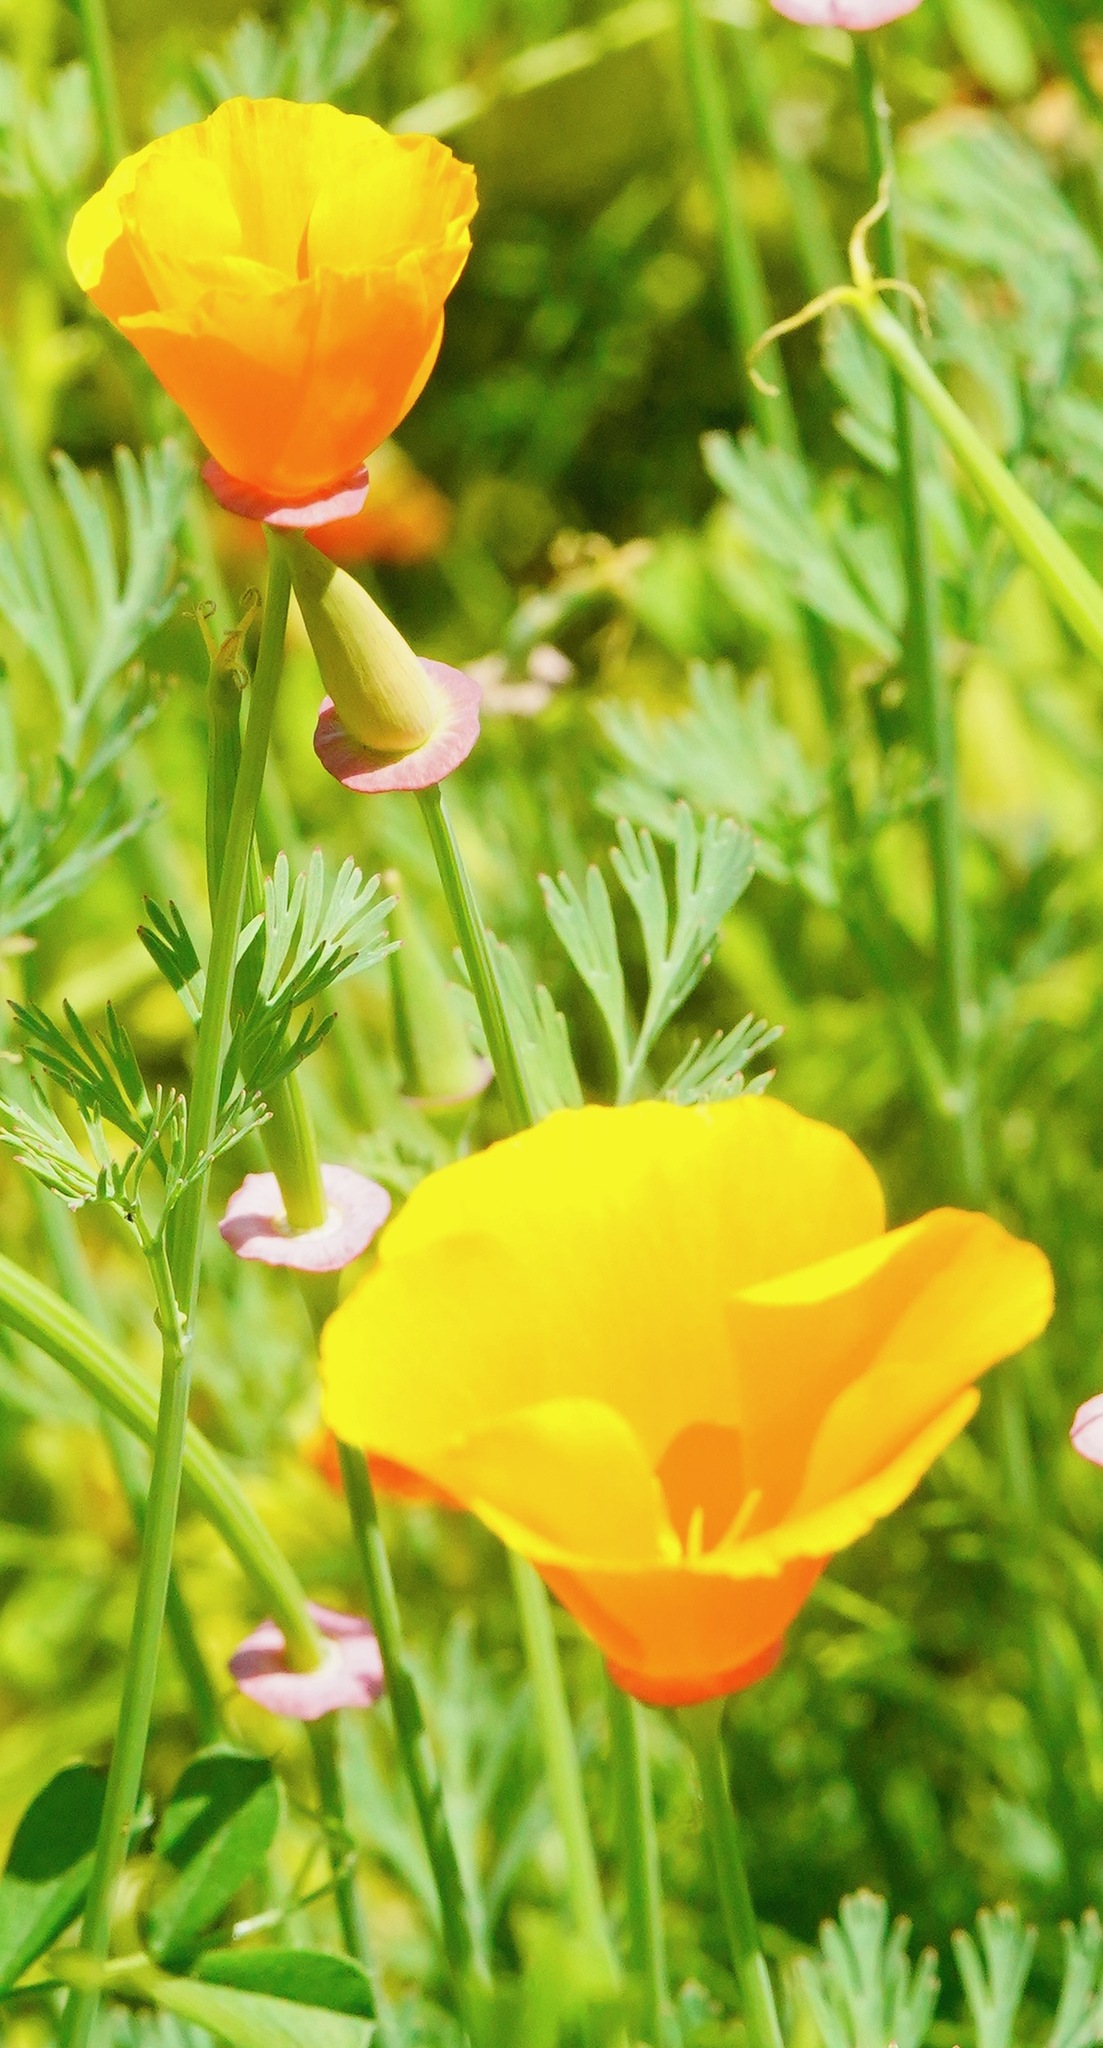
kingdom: Plantae
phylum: Tracheophyta
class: Magnoliopsida
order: Ranunculales
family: Papaveraceae
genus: Eschscholzia
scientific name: Eschscholzia californica
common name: California poppy
